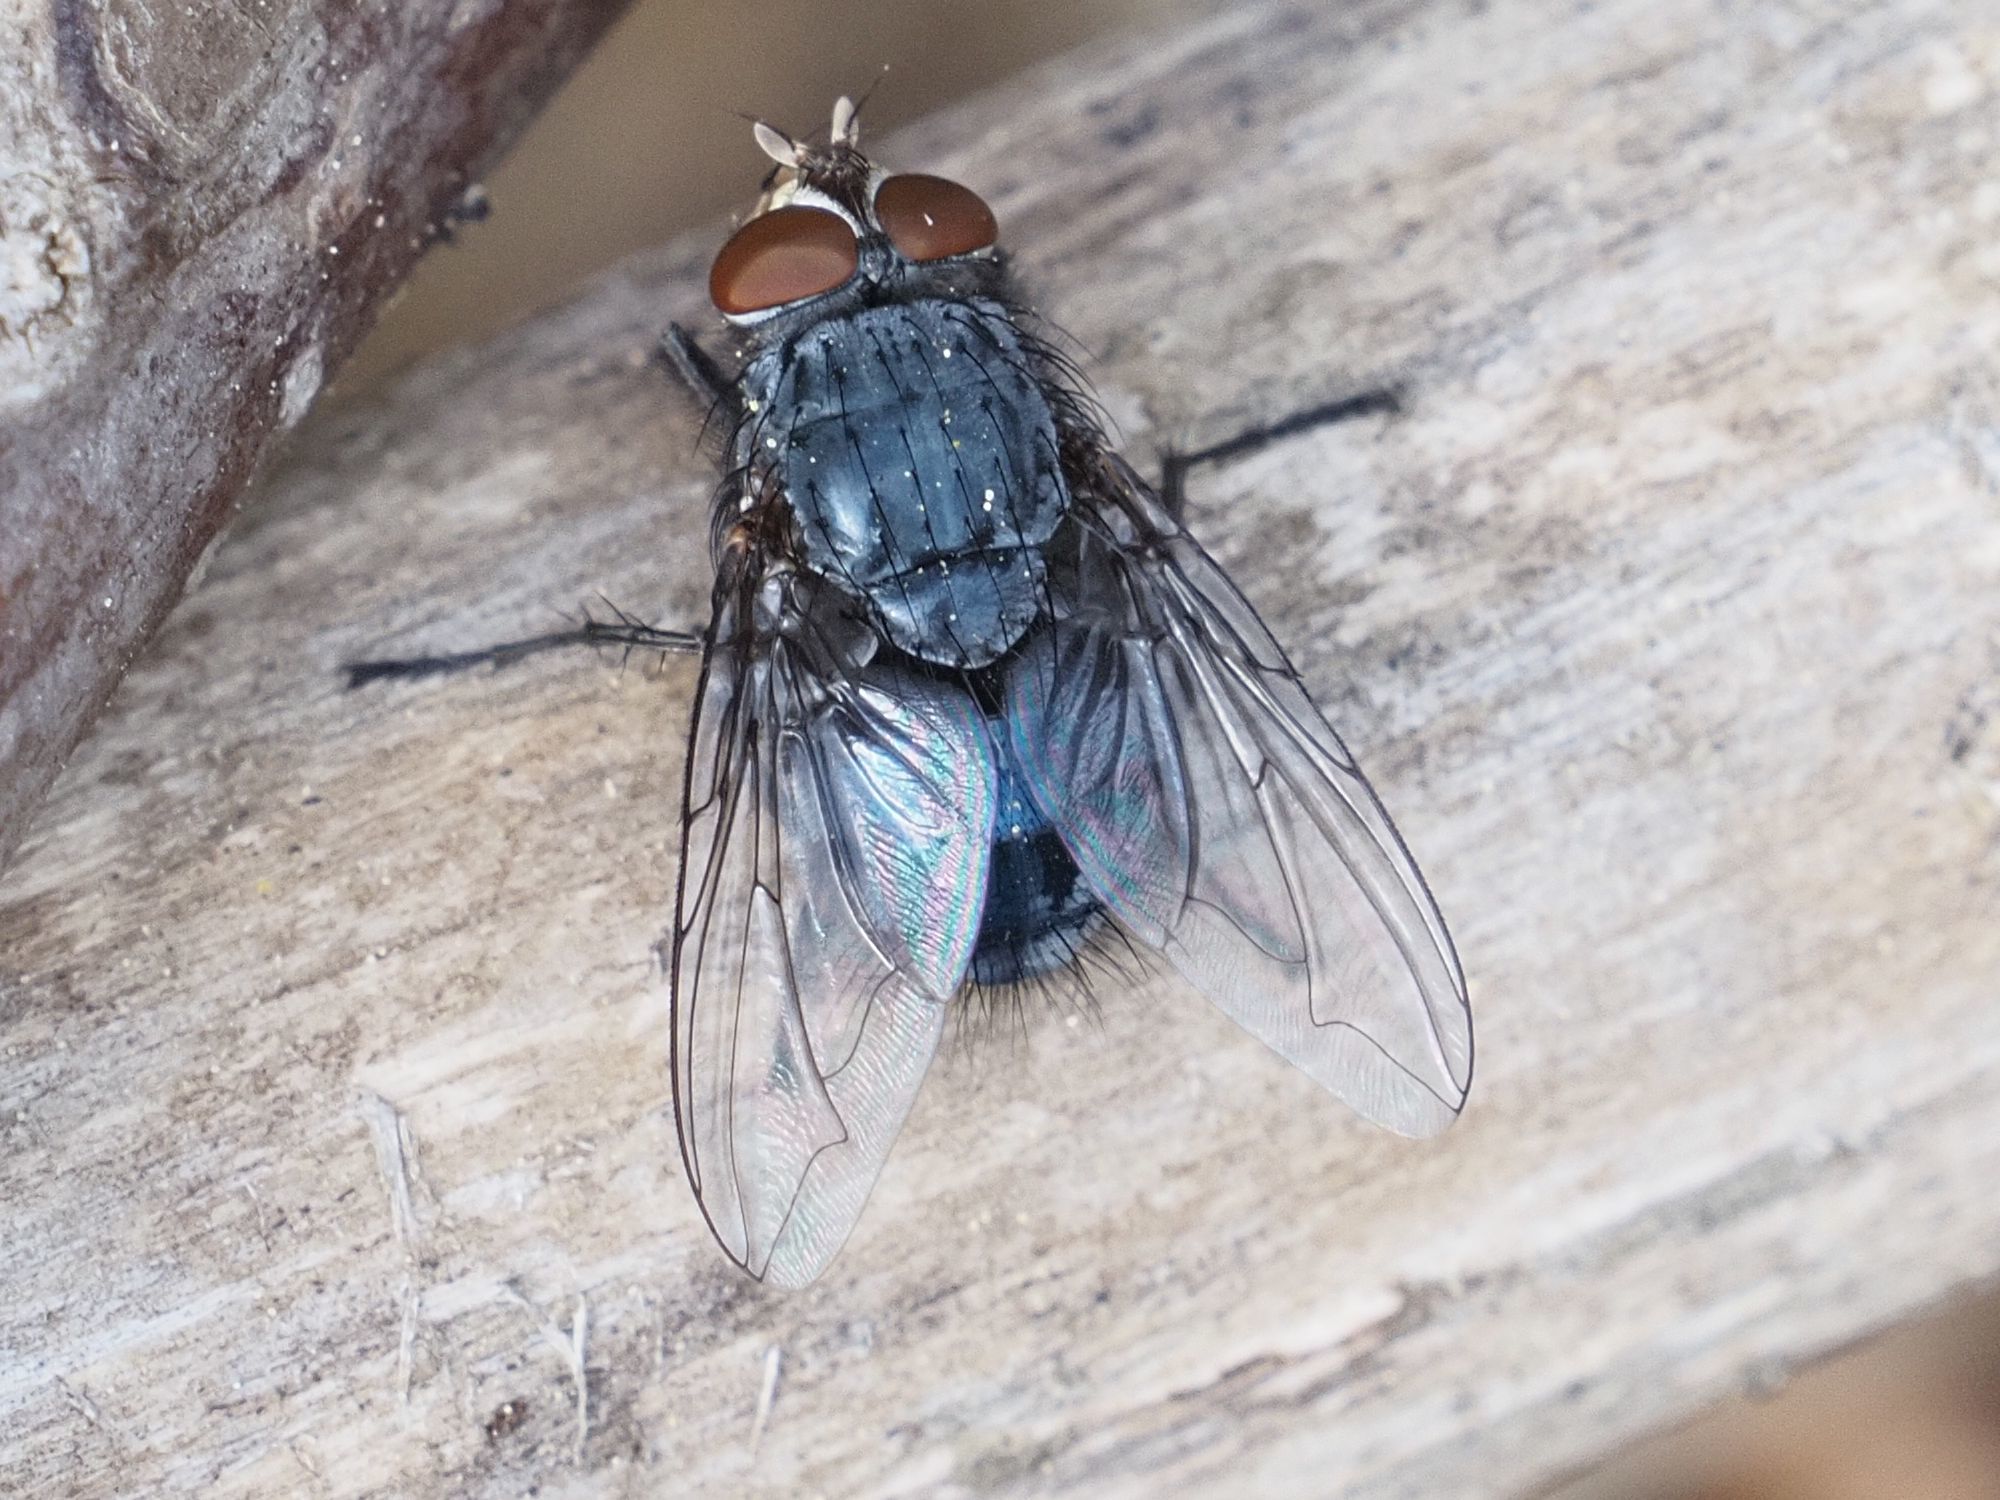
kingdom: Animalia
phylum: Arthropoda
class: Insecta
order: Diptera
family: Calliphoridae
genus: Calliphora
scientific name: Calliphora vicina
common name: Common blow flie
